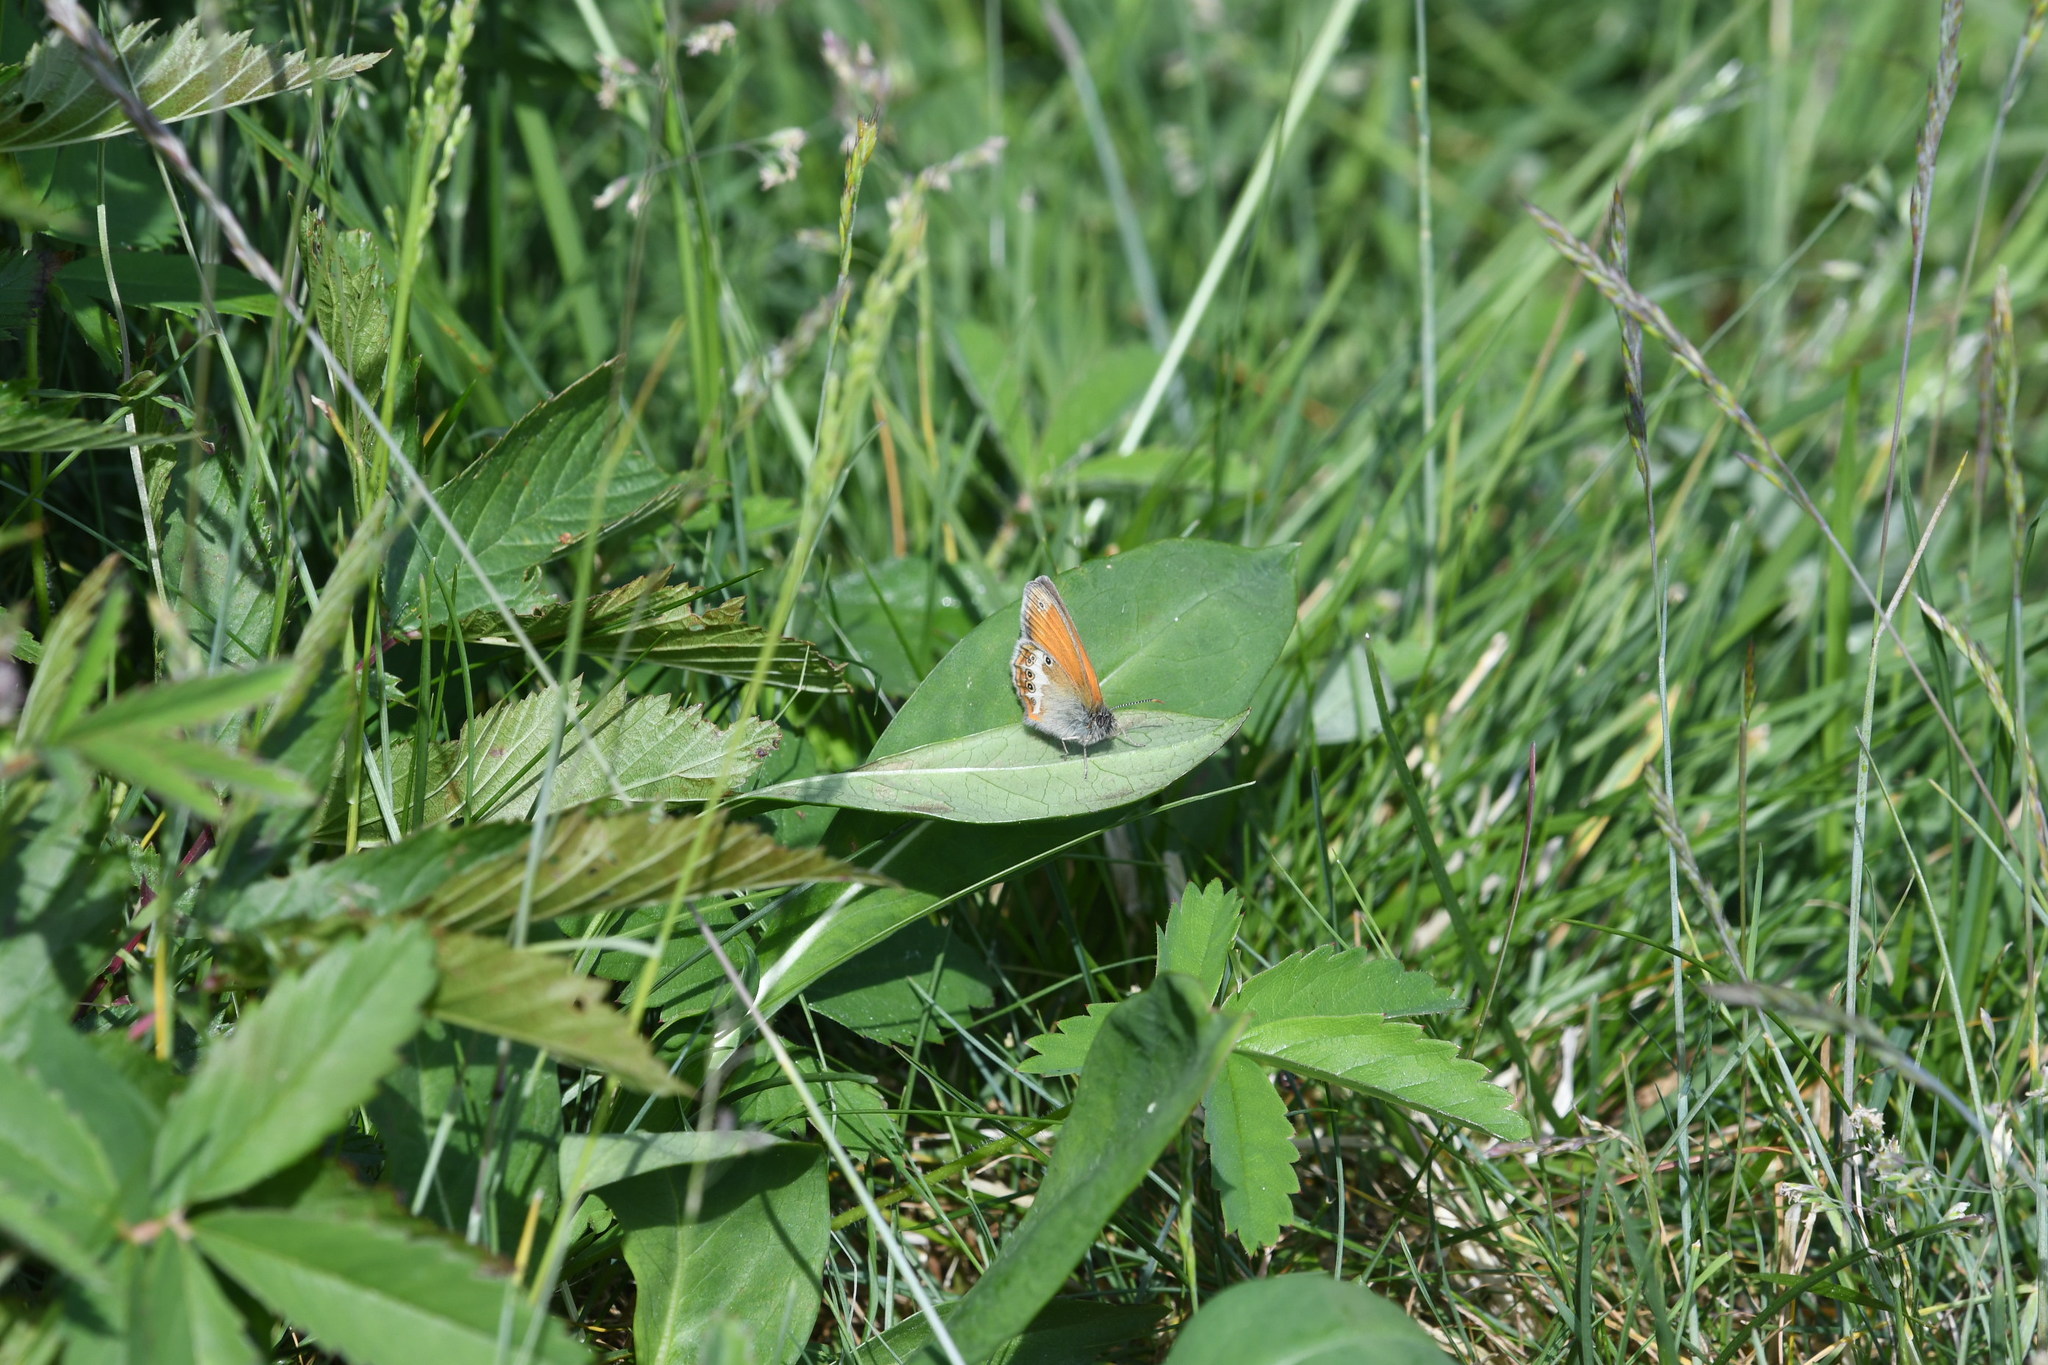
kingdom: Animalia
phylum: Arthropoda
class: Insecta
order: Lepidoptera
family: Nymphalidae
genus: Coenonympha
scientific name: Coenonympha arcania
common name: Pearly heath
